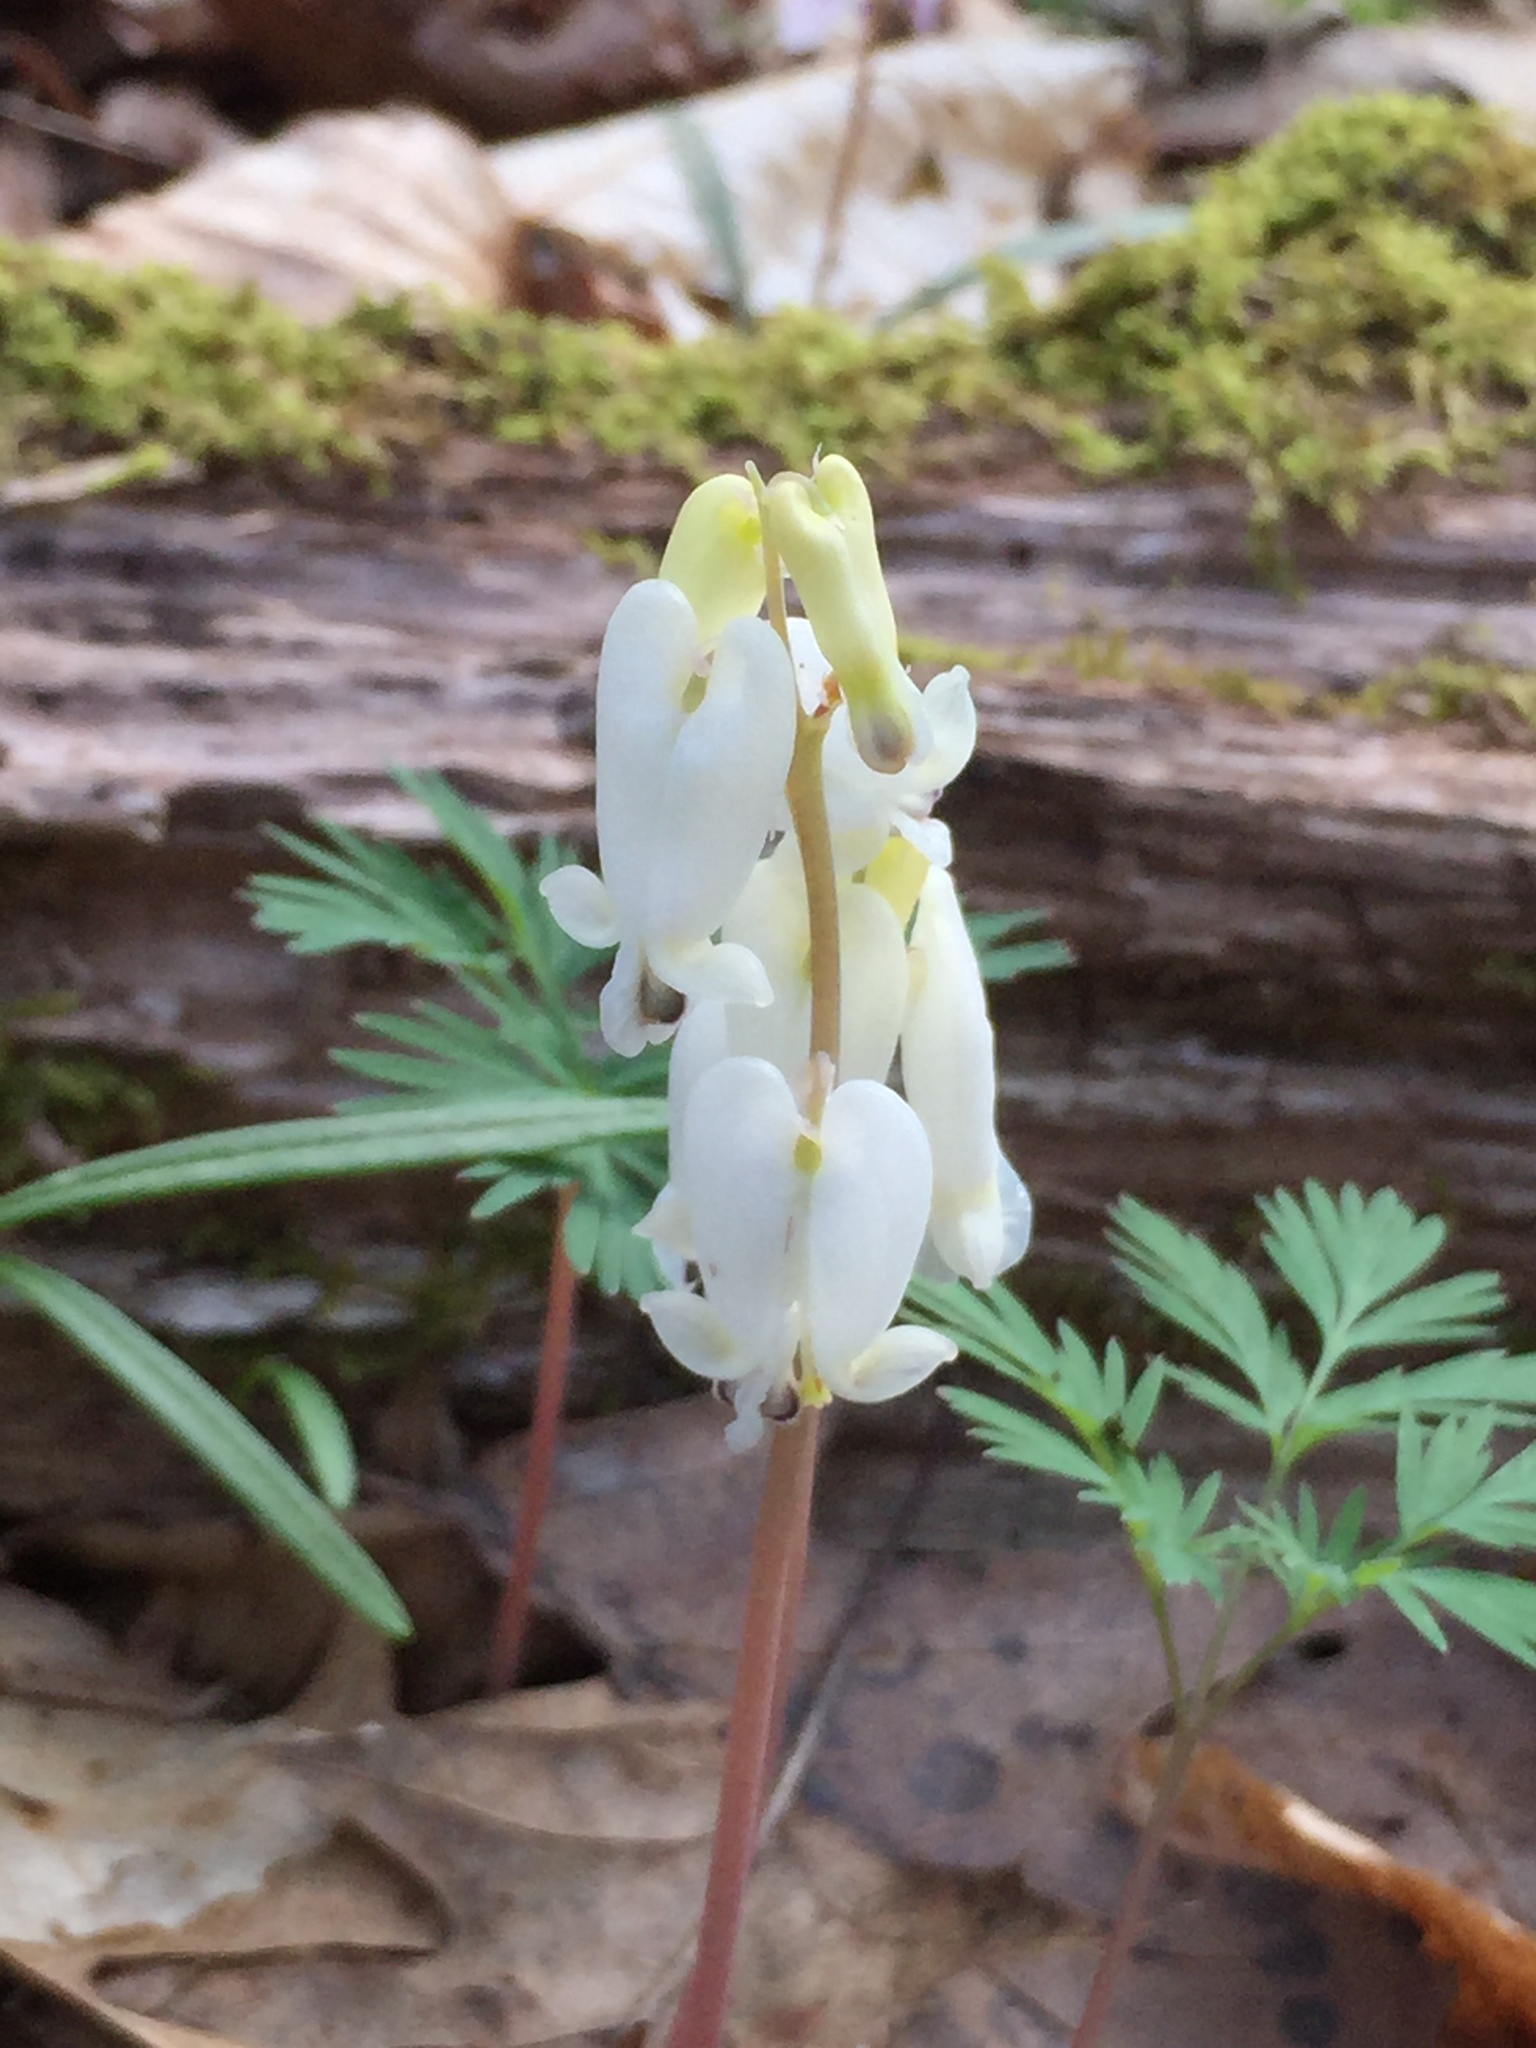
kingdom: Plantae
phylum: Tracheophyta
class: Magnoliopsida
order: Ranunculales
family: Papaveraceae
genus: Dicentra
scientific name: Dicentra canadensis
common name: Squirrel-corn
